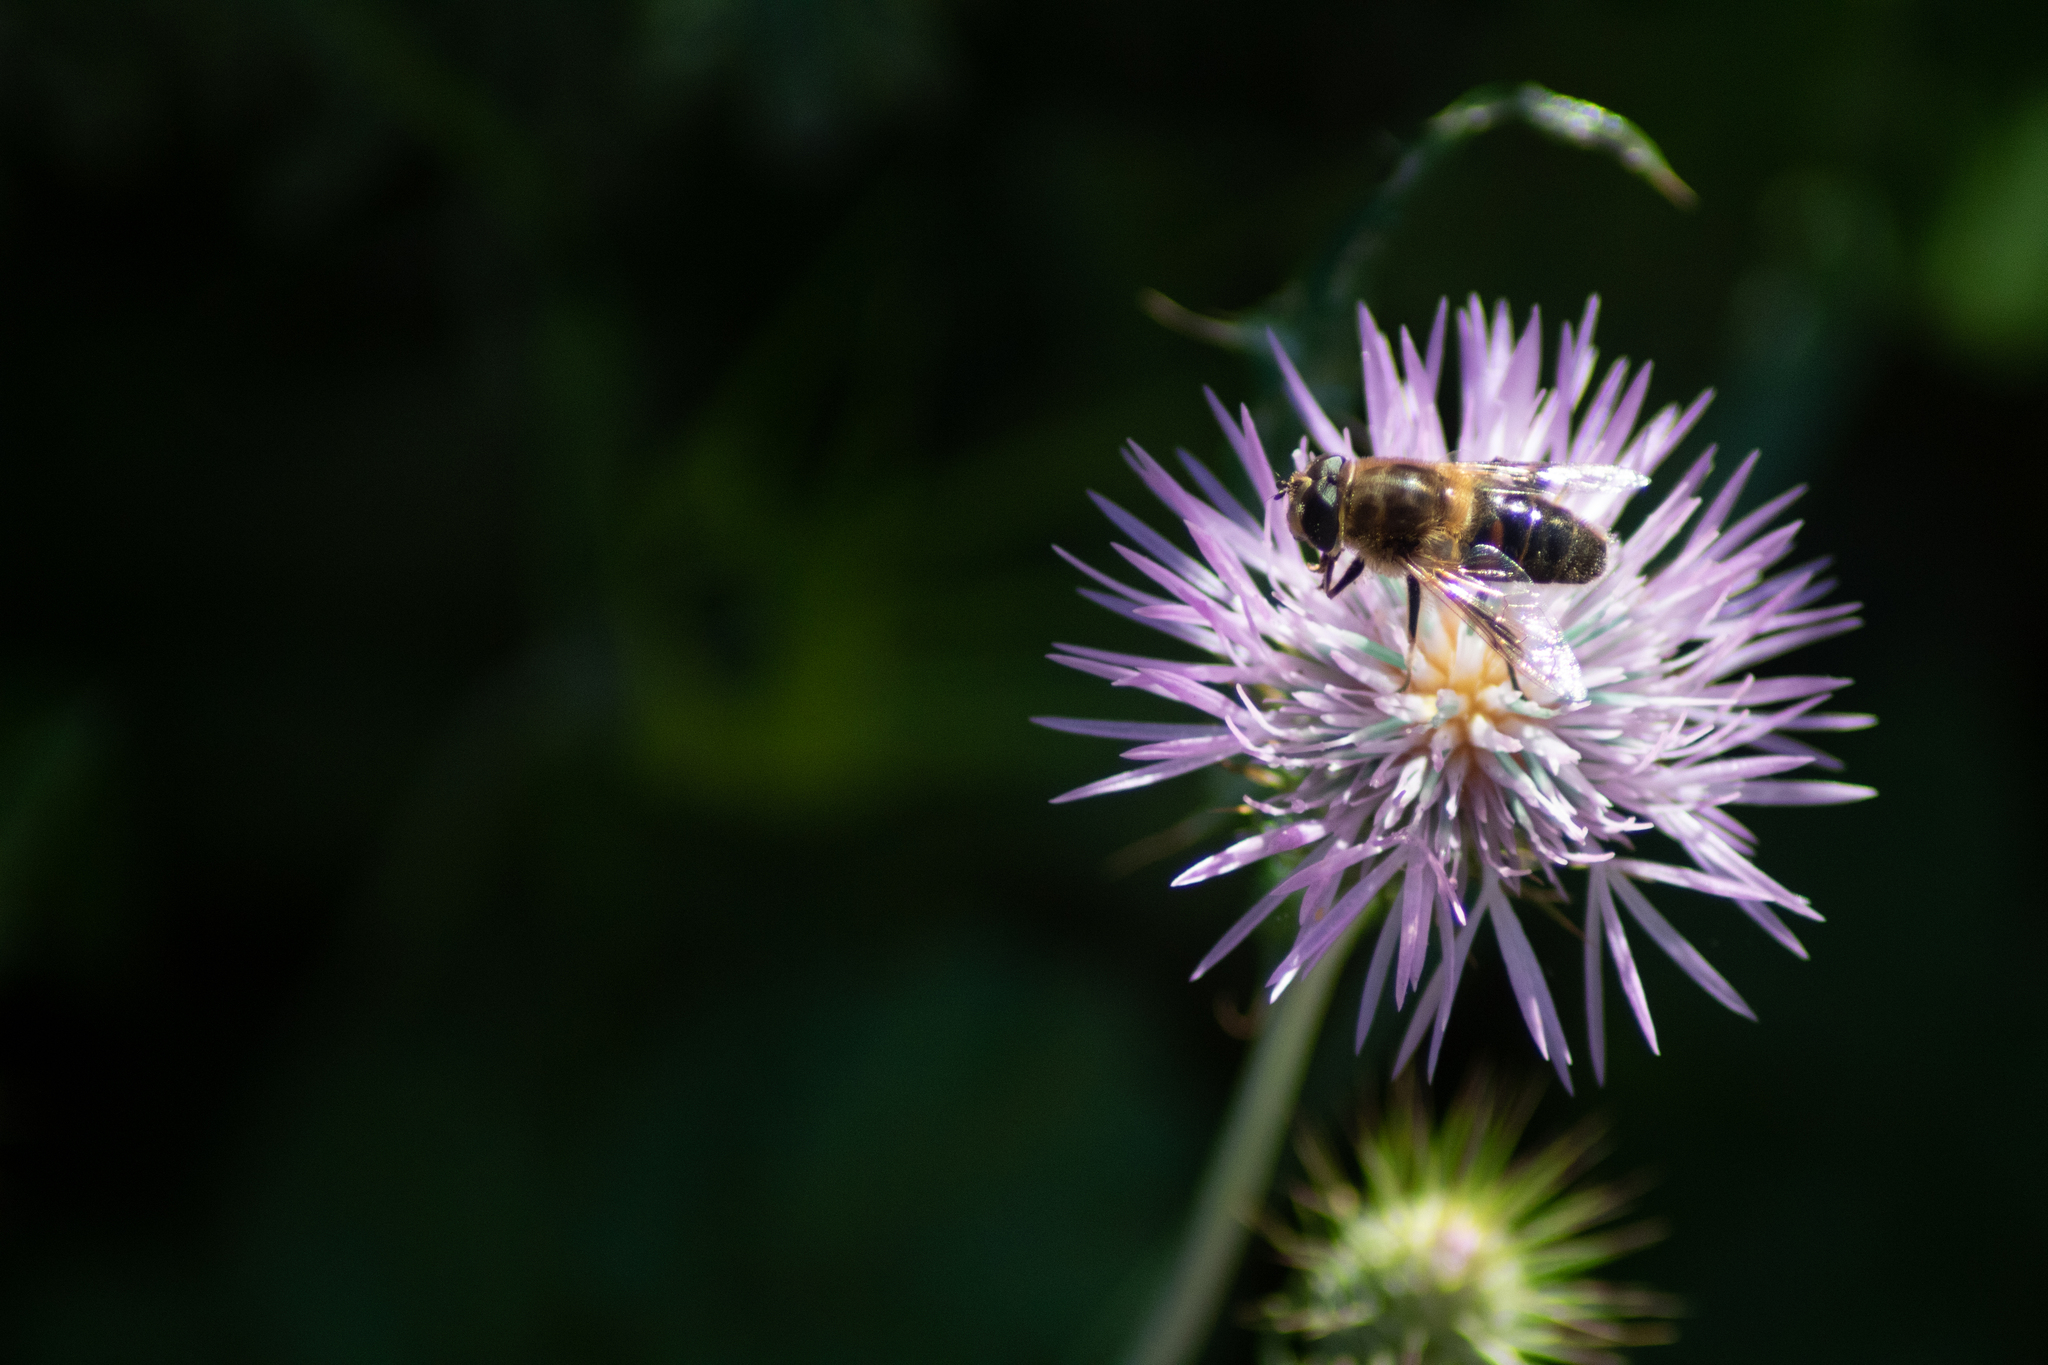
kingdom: Animalia
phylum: Arthropoda
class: Insecta
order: Diptera
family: Syrphidae
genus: Eristalis
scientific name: Eristalis tenax
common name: Drone fly
